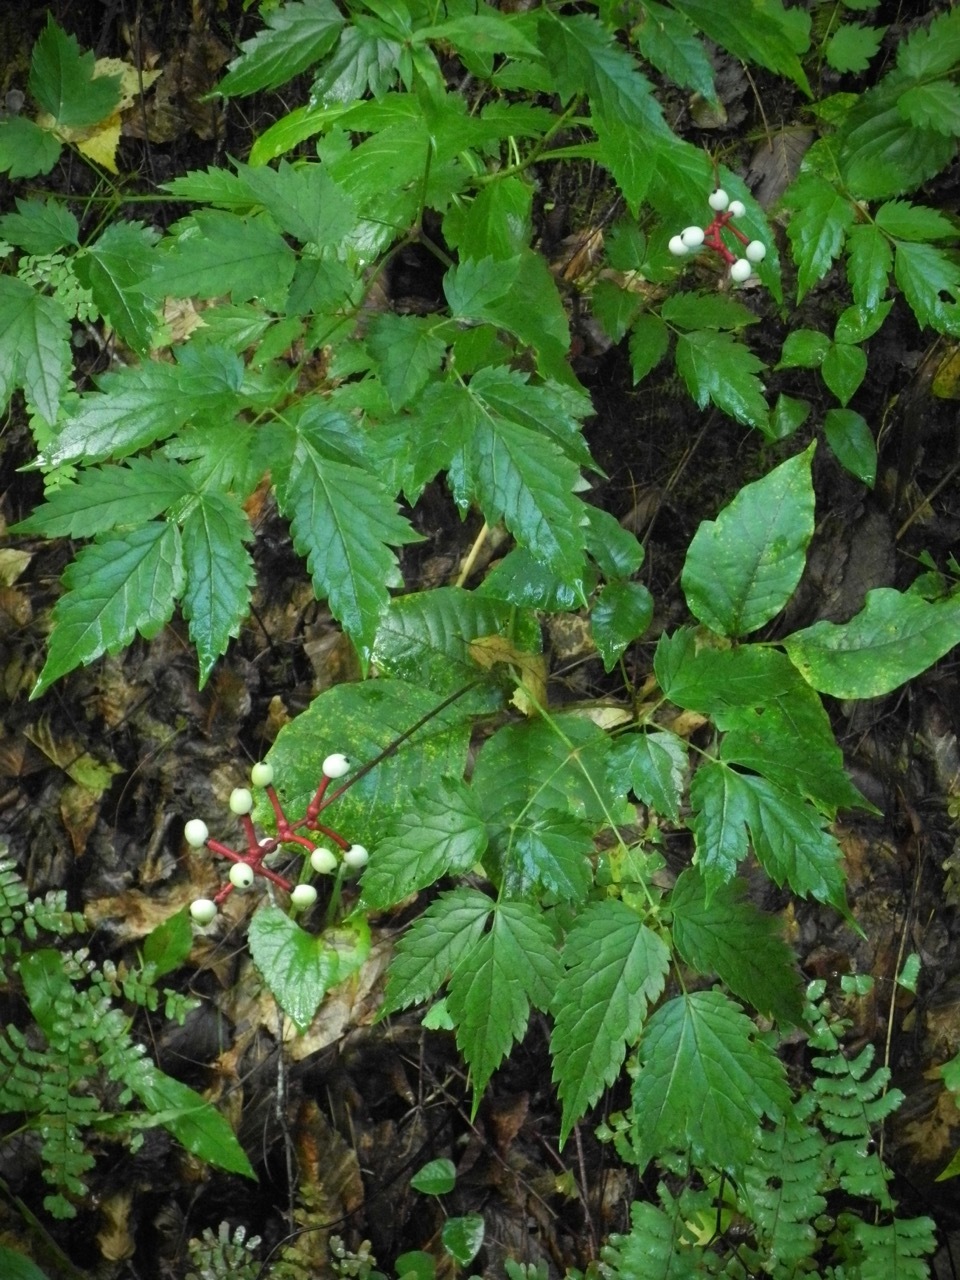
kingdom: Plantae
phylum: Tracheophyta
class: Magnoliopsida
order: Ranunculales
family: Ranunculaceae
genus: Actaea
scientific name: Actaea pachypoda
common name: Doll's-eyes
